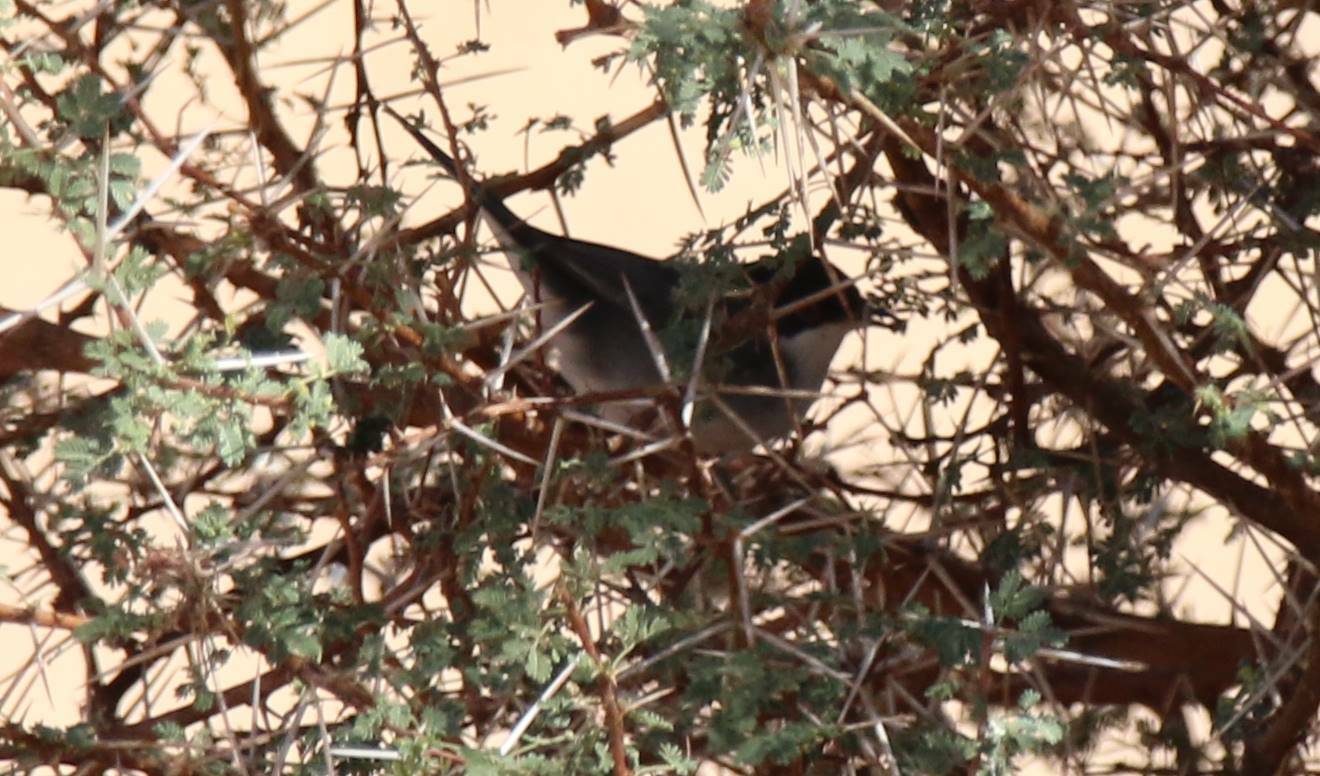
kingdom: Animalia
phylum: Chordata
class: Aves
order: Passeriformes
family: Sylviidae
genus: Curruca
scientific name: Curruca melanocephala
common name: Sardinian warbler
